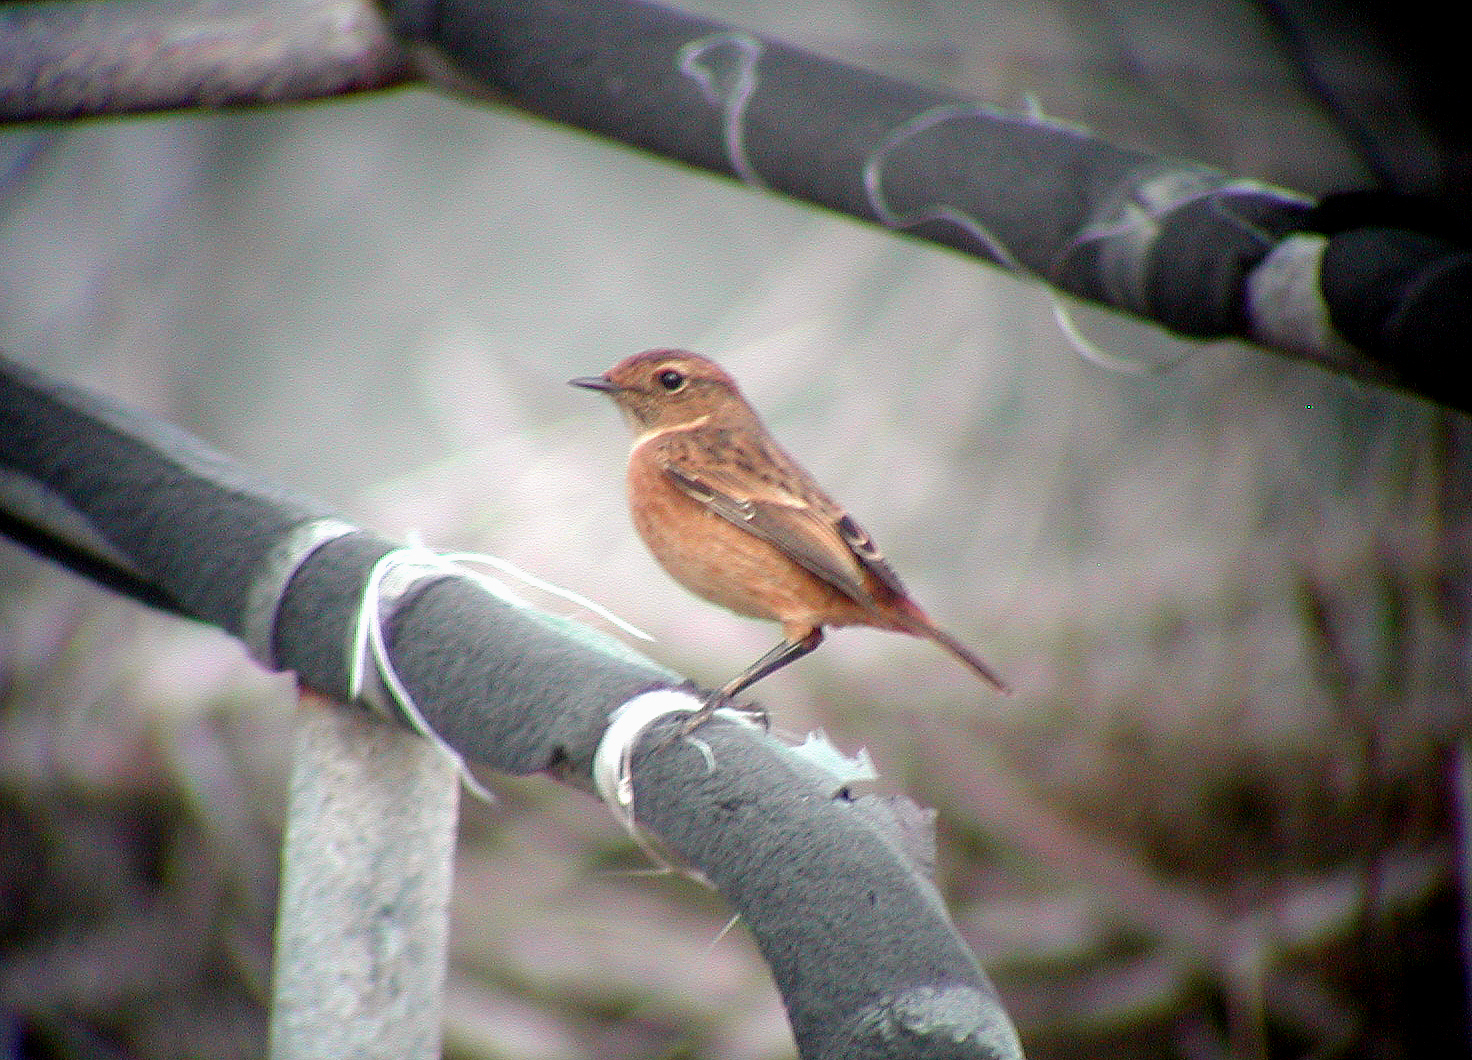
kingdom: Animalia
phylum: Chordata
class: Aves
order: Passeriformes
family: Muscicapidae
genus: Saxicola
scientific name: Saxicola rubicola
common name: European stonechat
